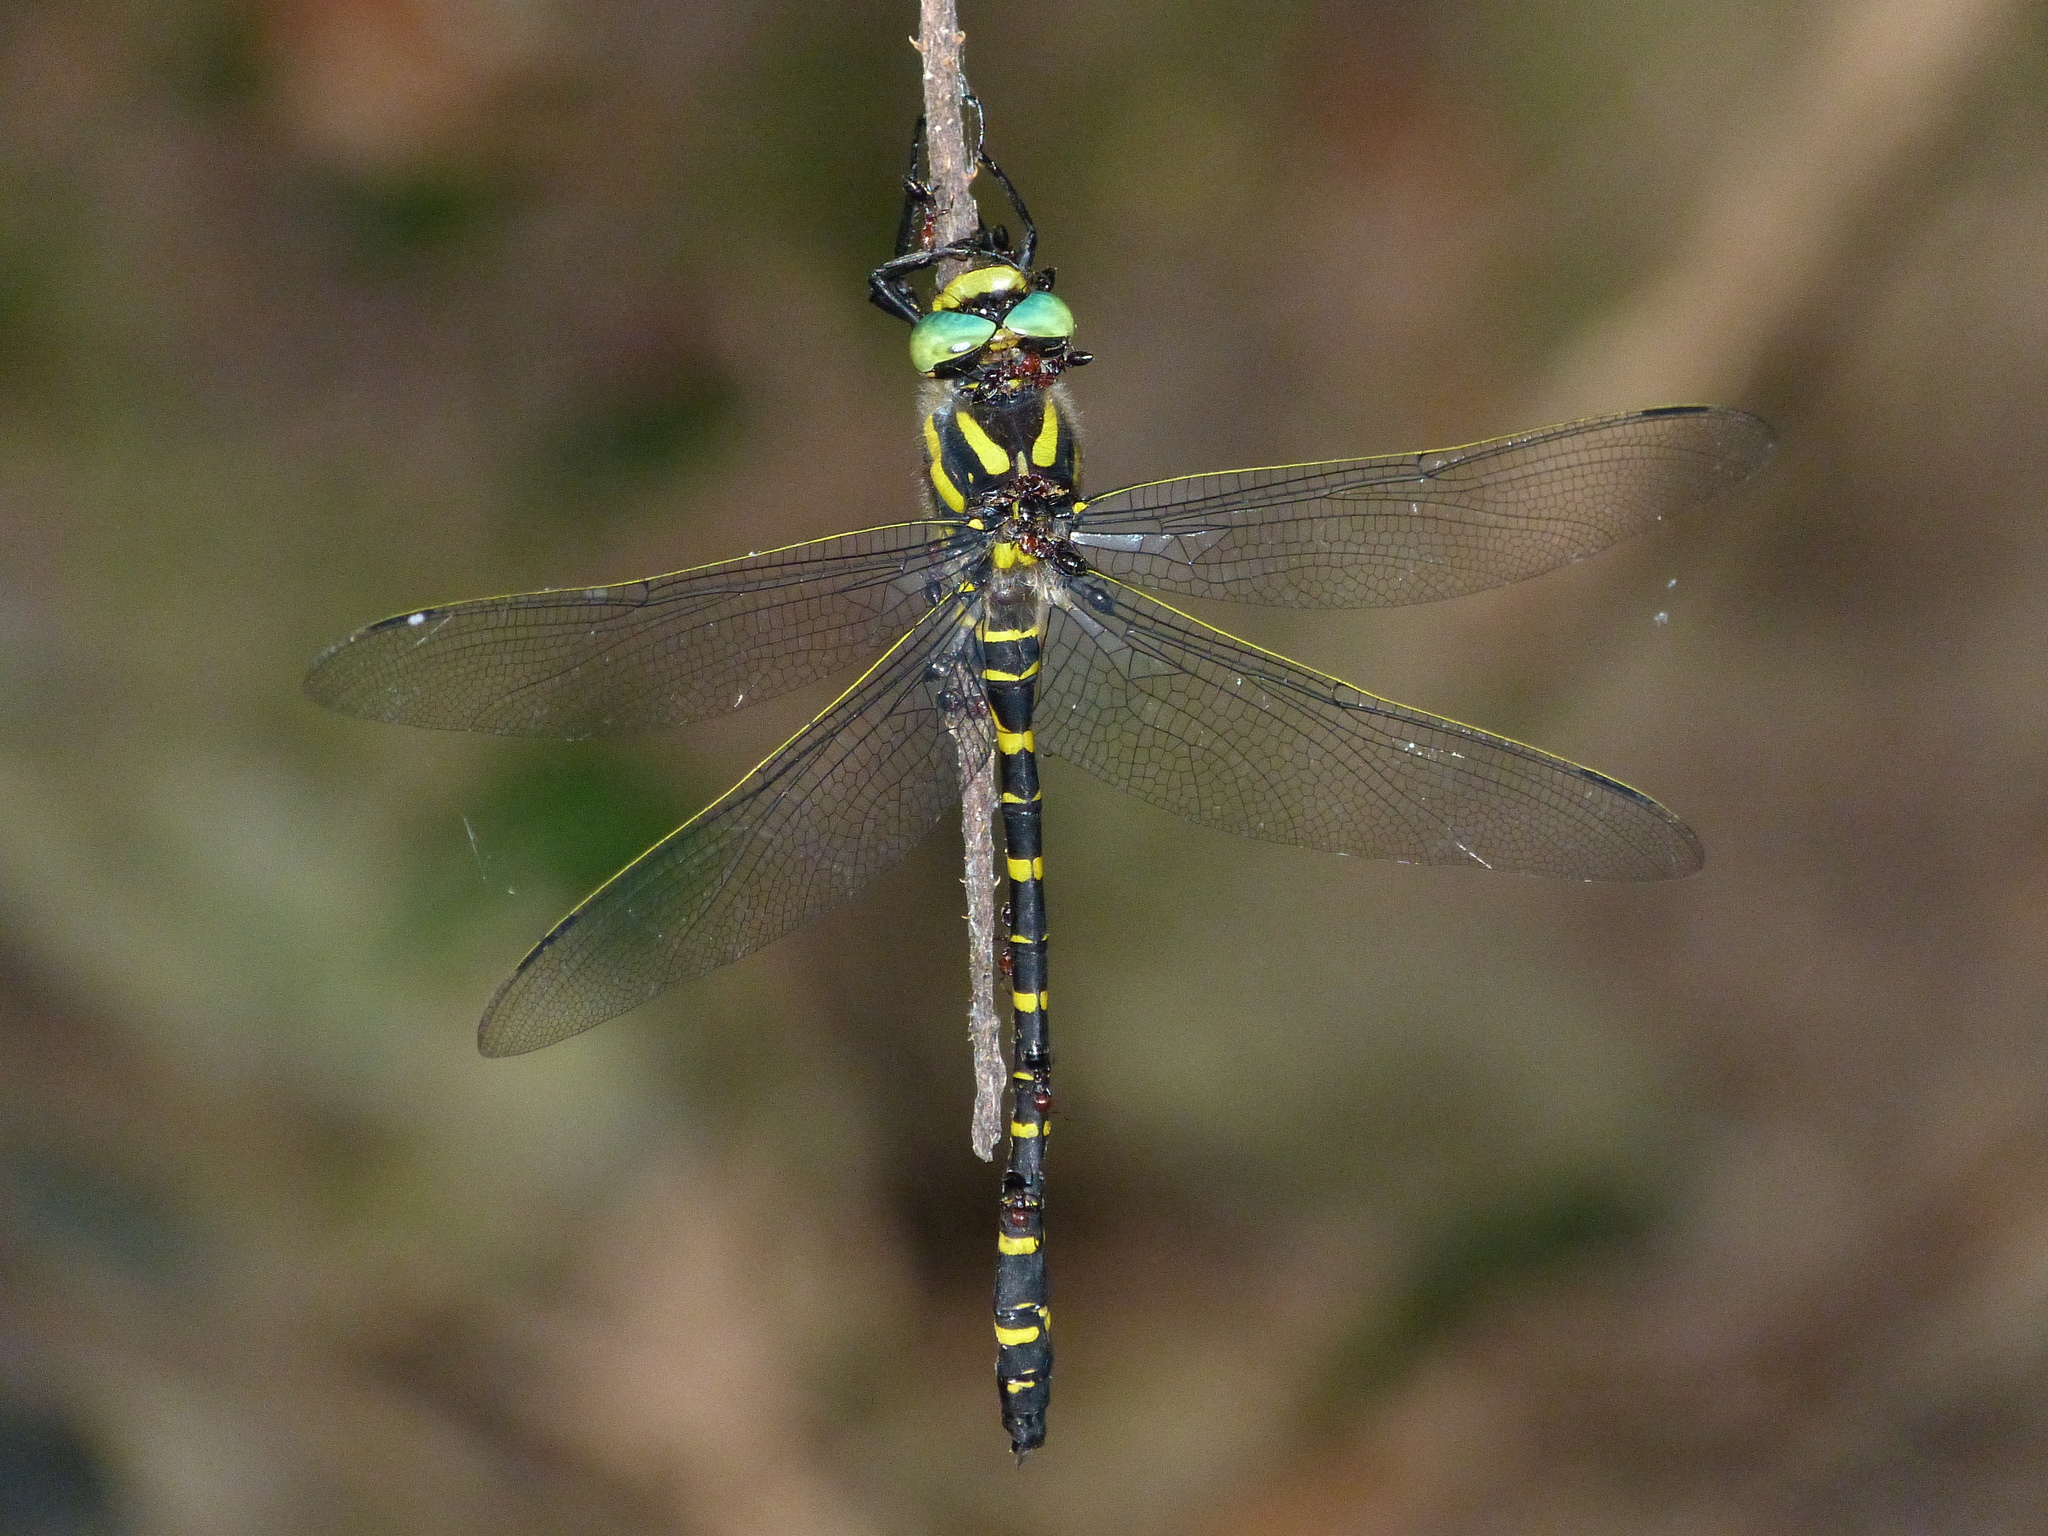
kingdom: Animalia
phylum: Arthropoda
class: Insecta
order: Odonata
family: Cordulegastridae
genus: Cordulegaster
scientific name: Cordulegaster boltonii
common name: Golden-ringed dragonfly
